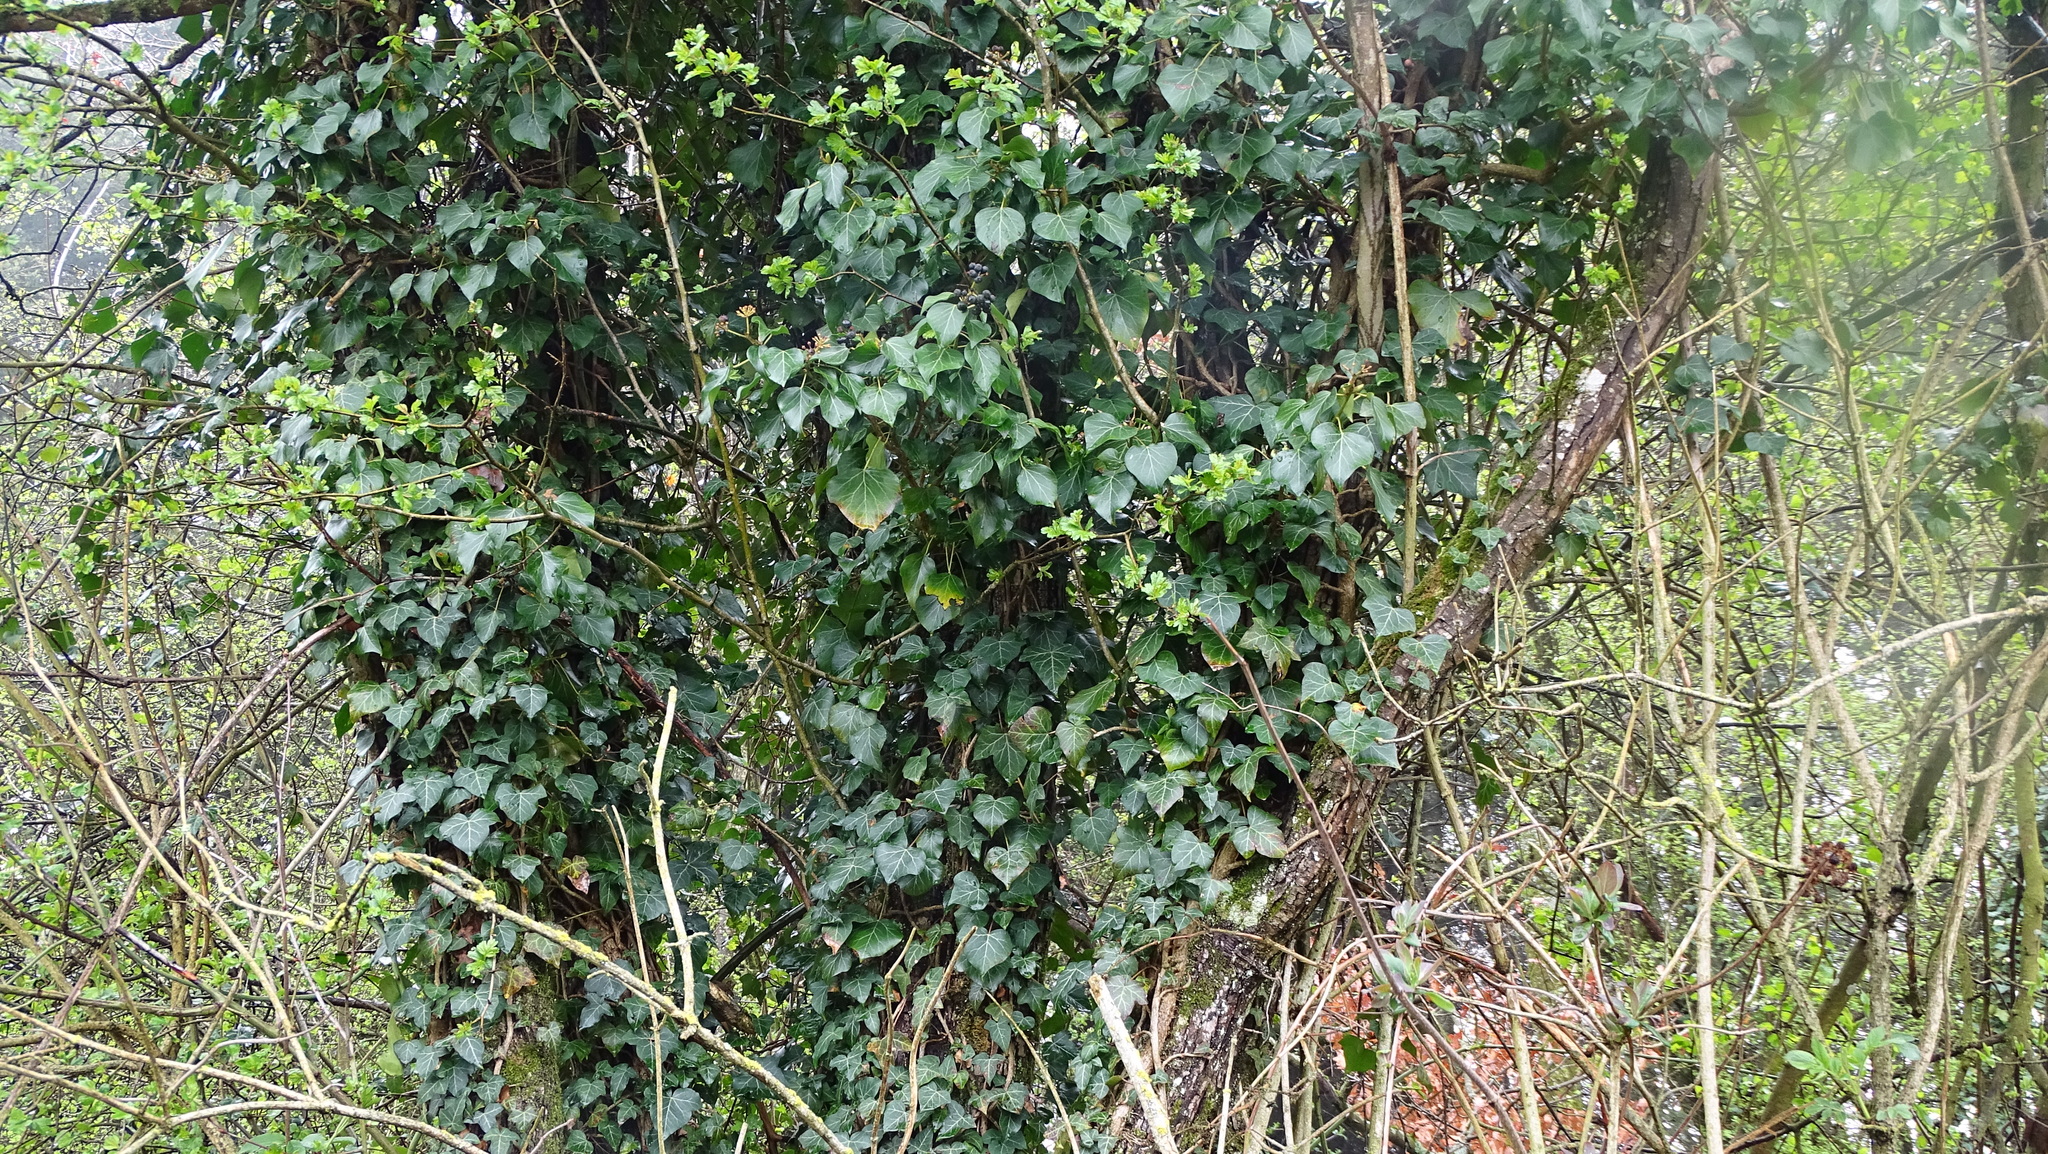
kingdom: Plantae
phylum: Tracheophyta
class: Magnoliopsida
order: Apiales
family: Araliaceae
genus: Hedera
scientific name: Hedera helix
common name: Ivy
